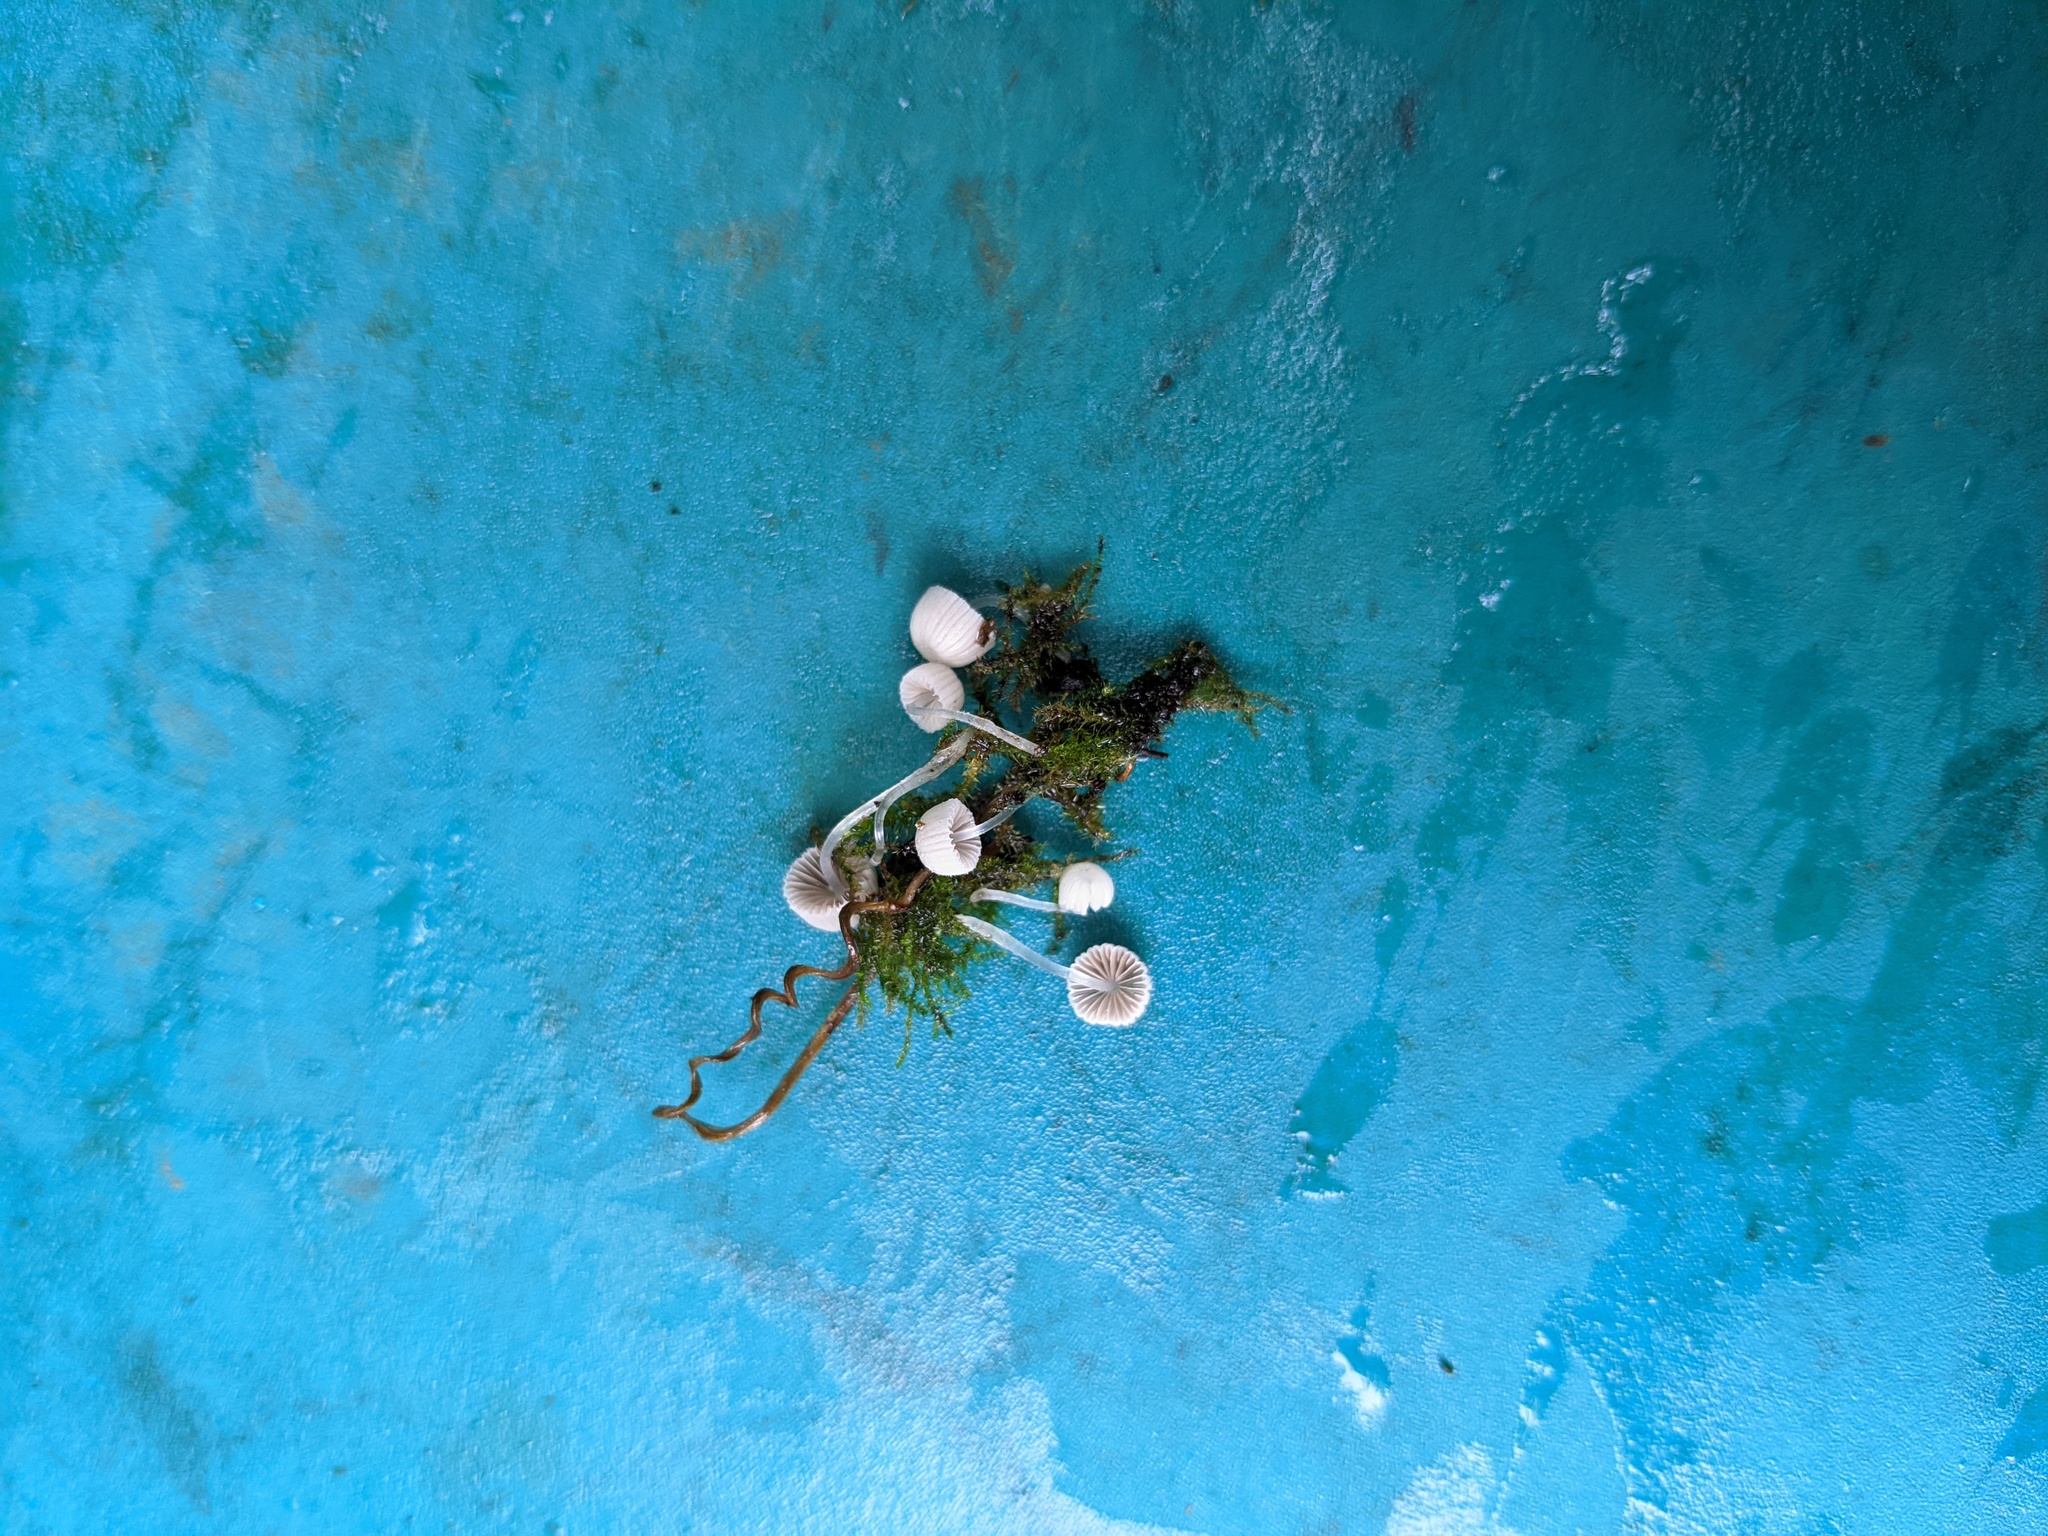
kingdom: Fungi
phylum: Basidiomycota
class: Agaricomycetes
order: Agaricales
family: Psathyrellaceae
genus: Coprinellus
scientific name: Coprinellus disseminatus
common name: Fairies' bonnets
